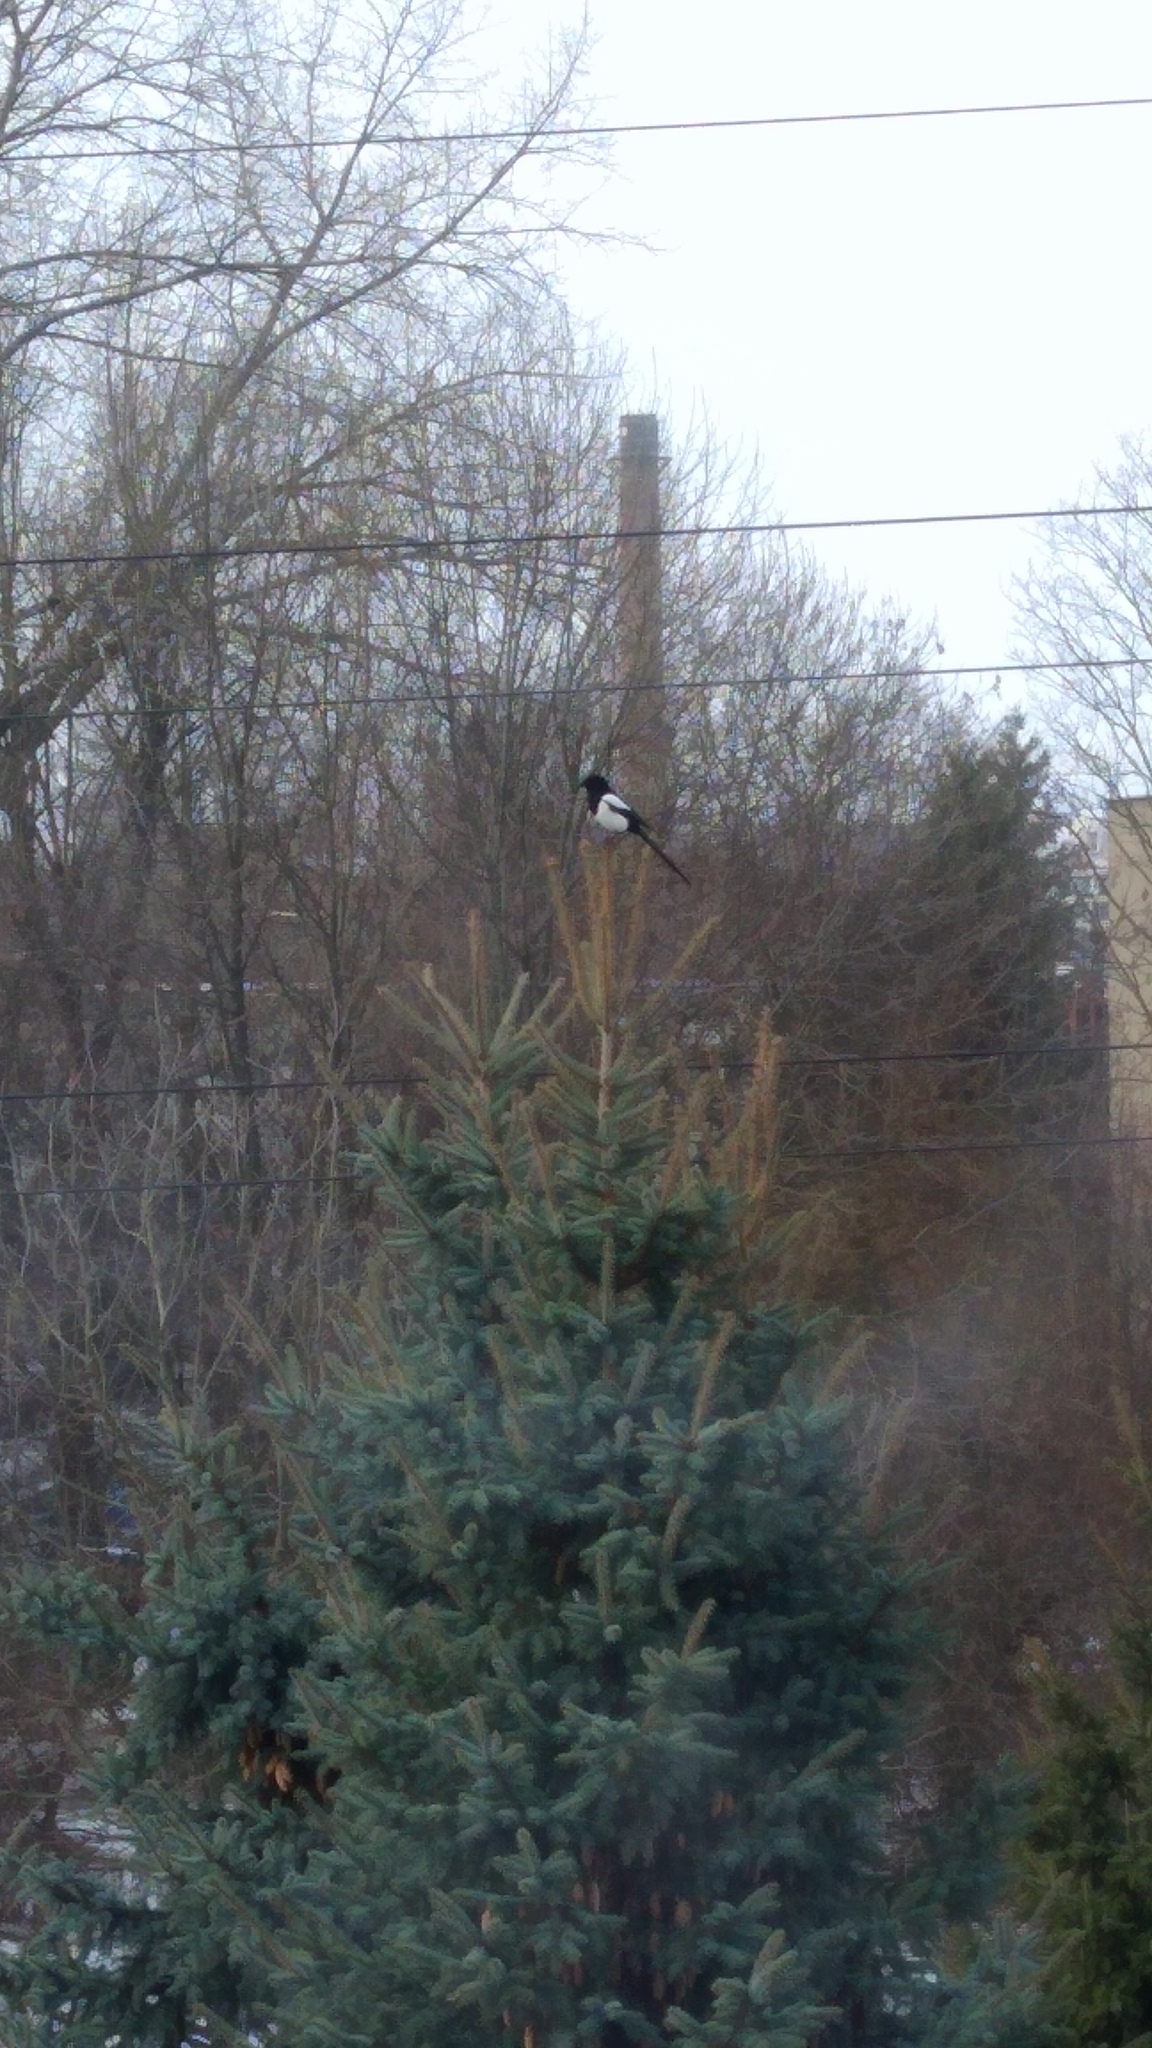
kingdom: Animalia
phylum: Chordata
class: Aves
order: Passeriformes
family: Corvidae
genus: Pica
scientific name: Pica pica
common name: Eurasian magpie
